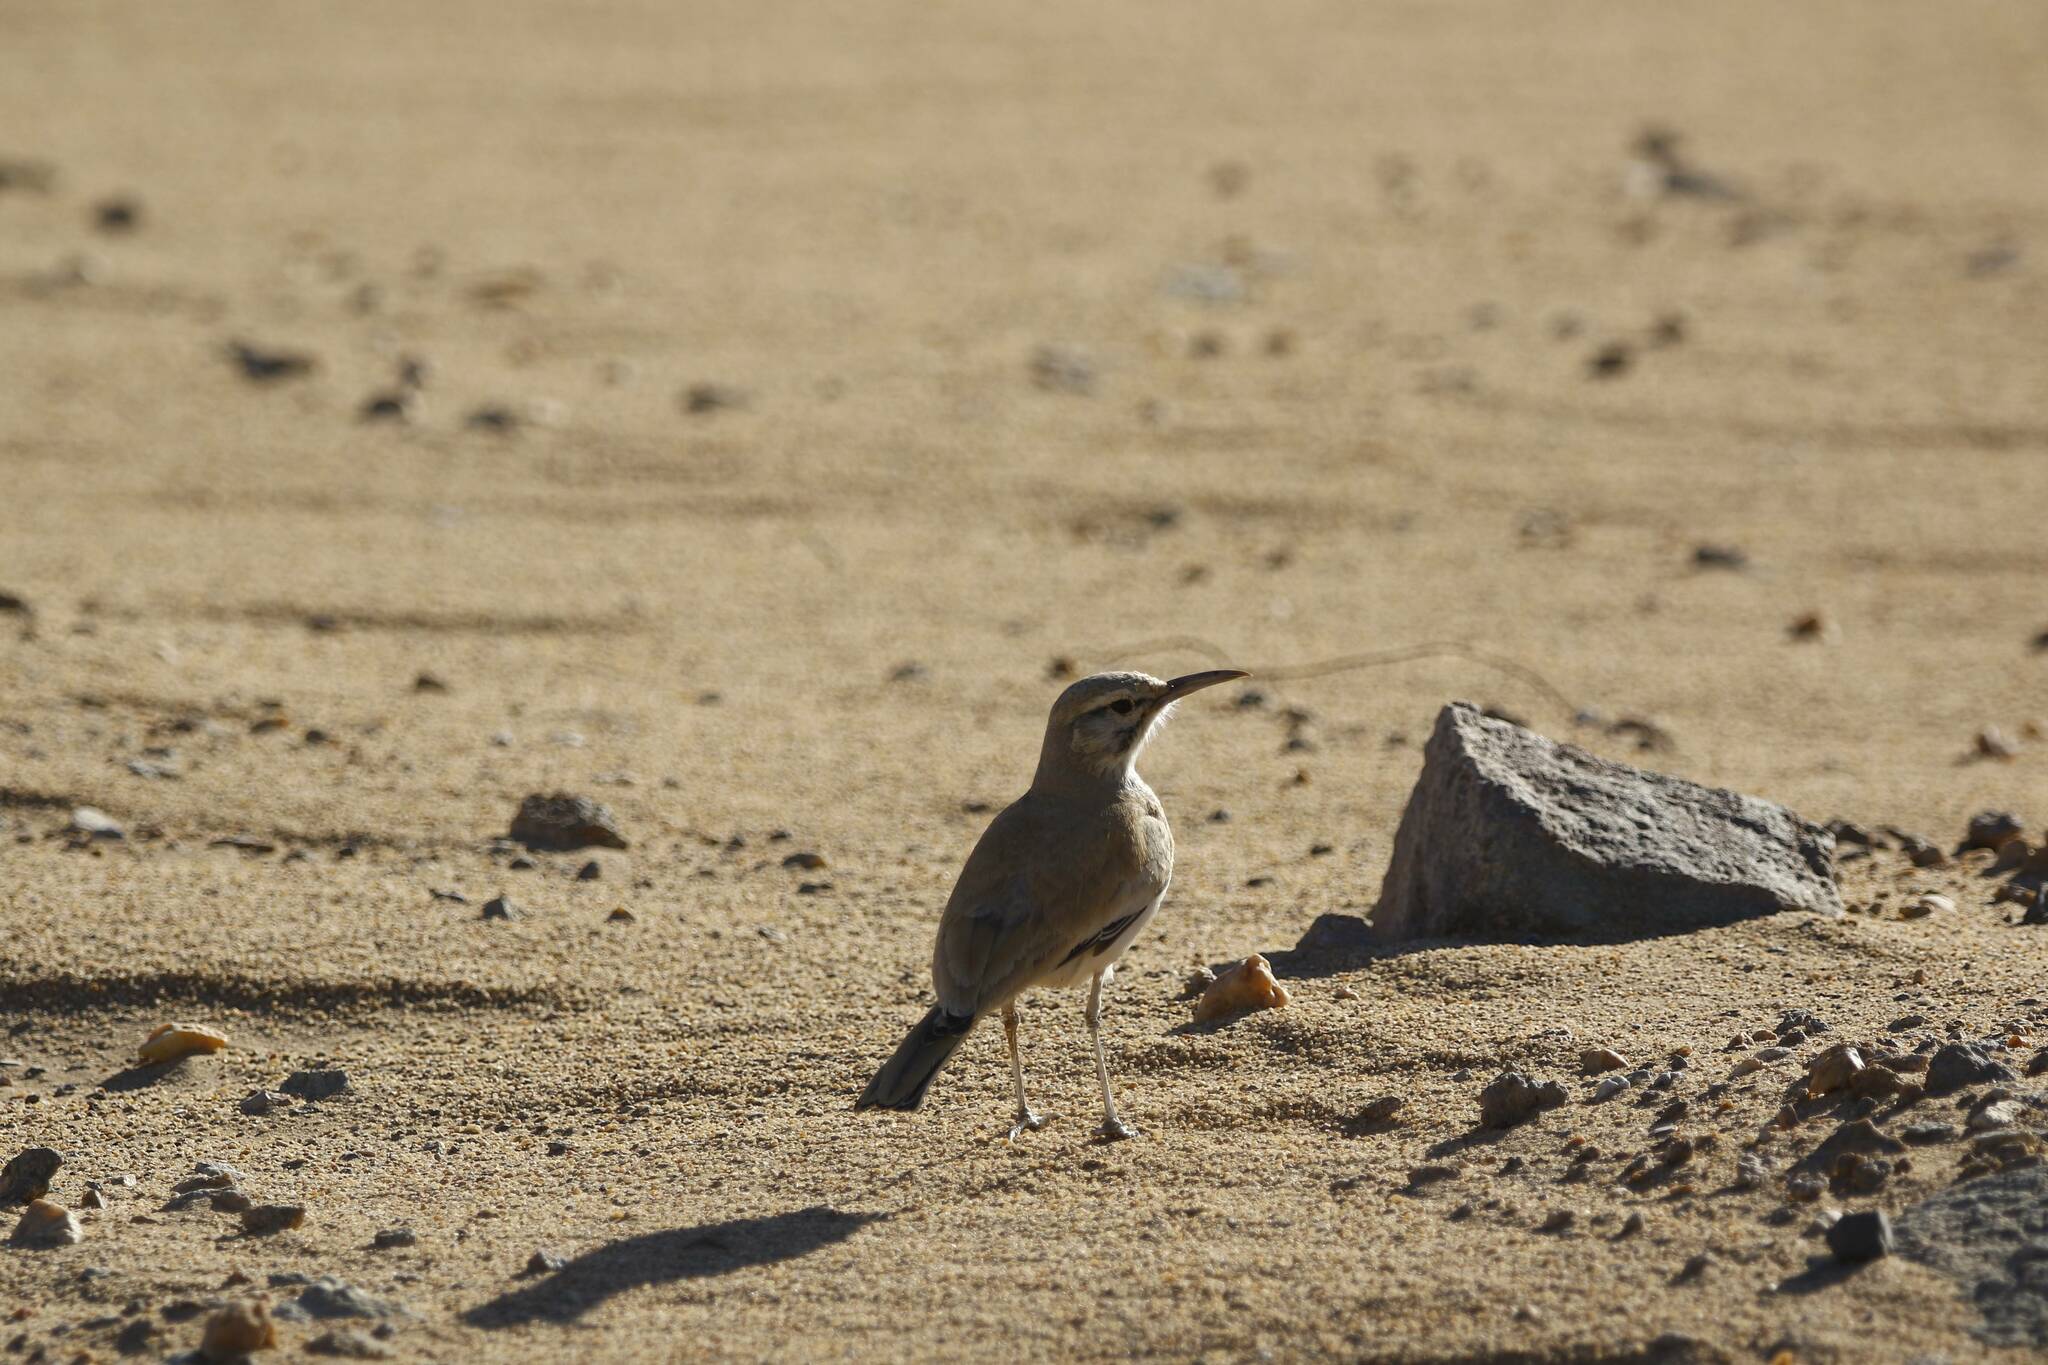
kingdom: Animalia
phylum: Chordata
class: Aves
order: Passeriformes
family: Alaudidae
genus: Alaemon
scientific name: Alaemon alaudipes
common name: Greater hoopoe-lark
